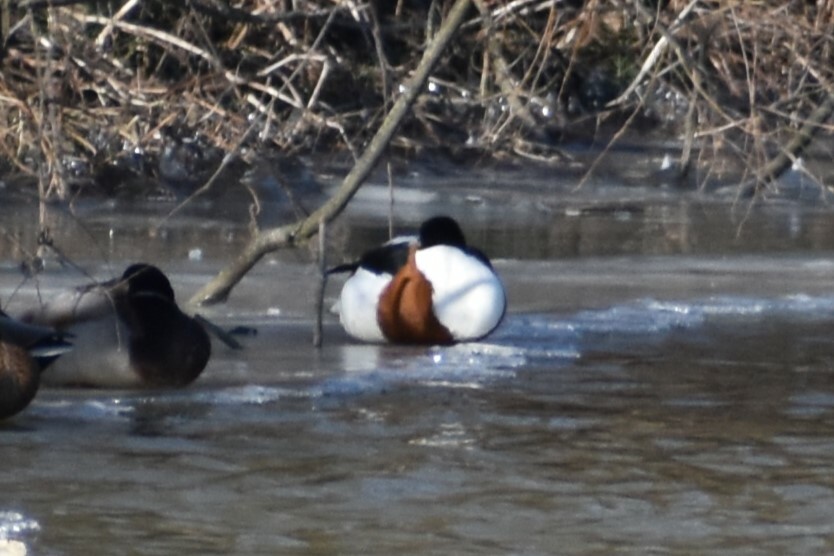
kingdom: Animalia
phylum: Chordata
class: Aves
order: Anseriformes
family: Anatidae
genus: Tadorna
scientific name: Tadorna tadorna
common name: Common shelduck
